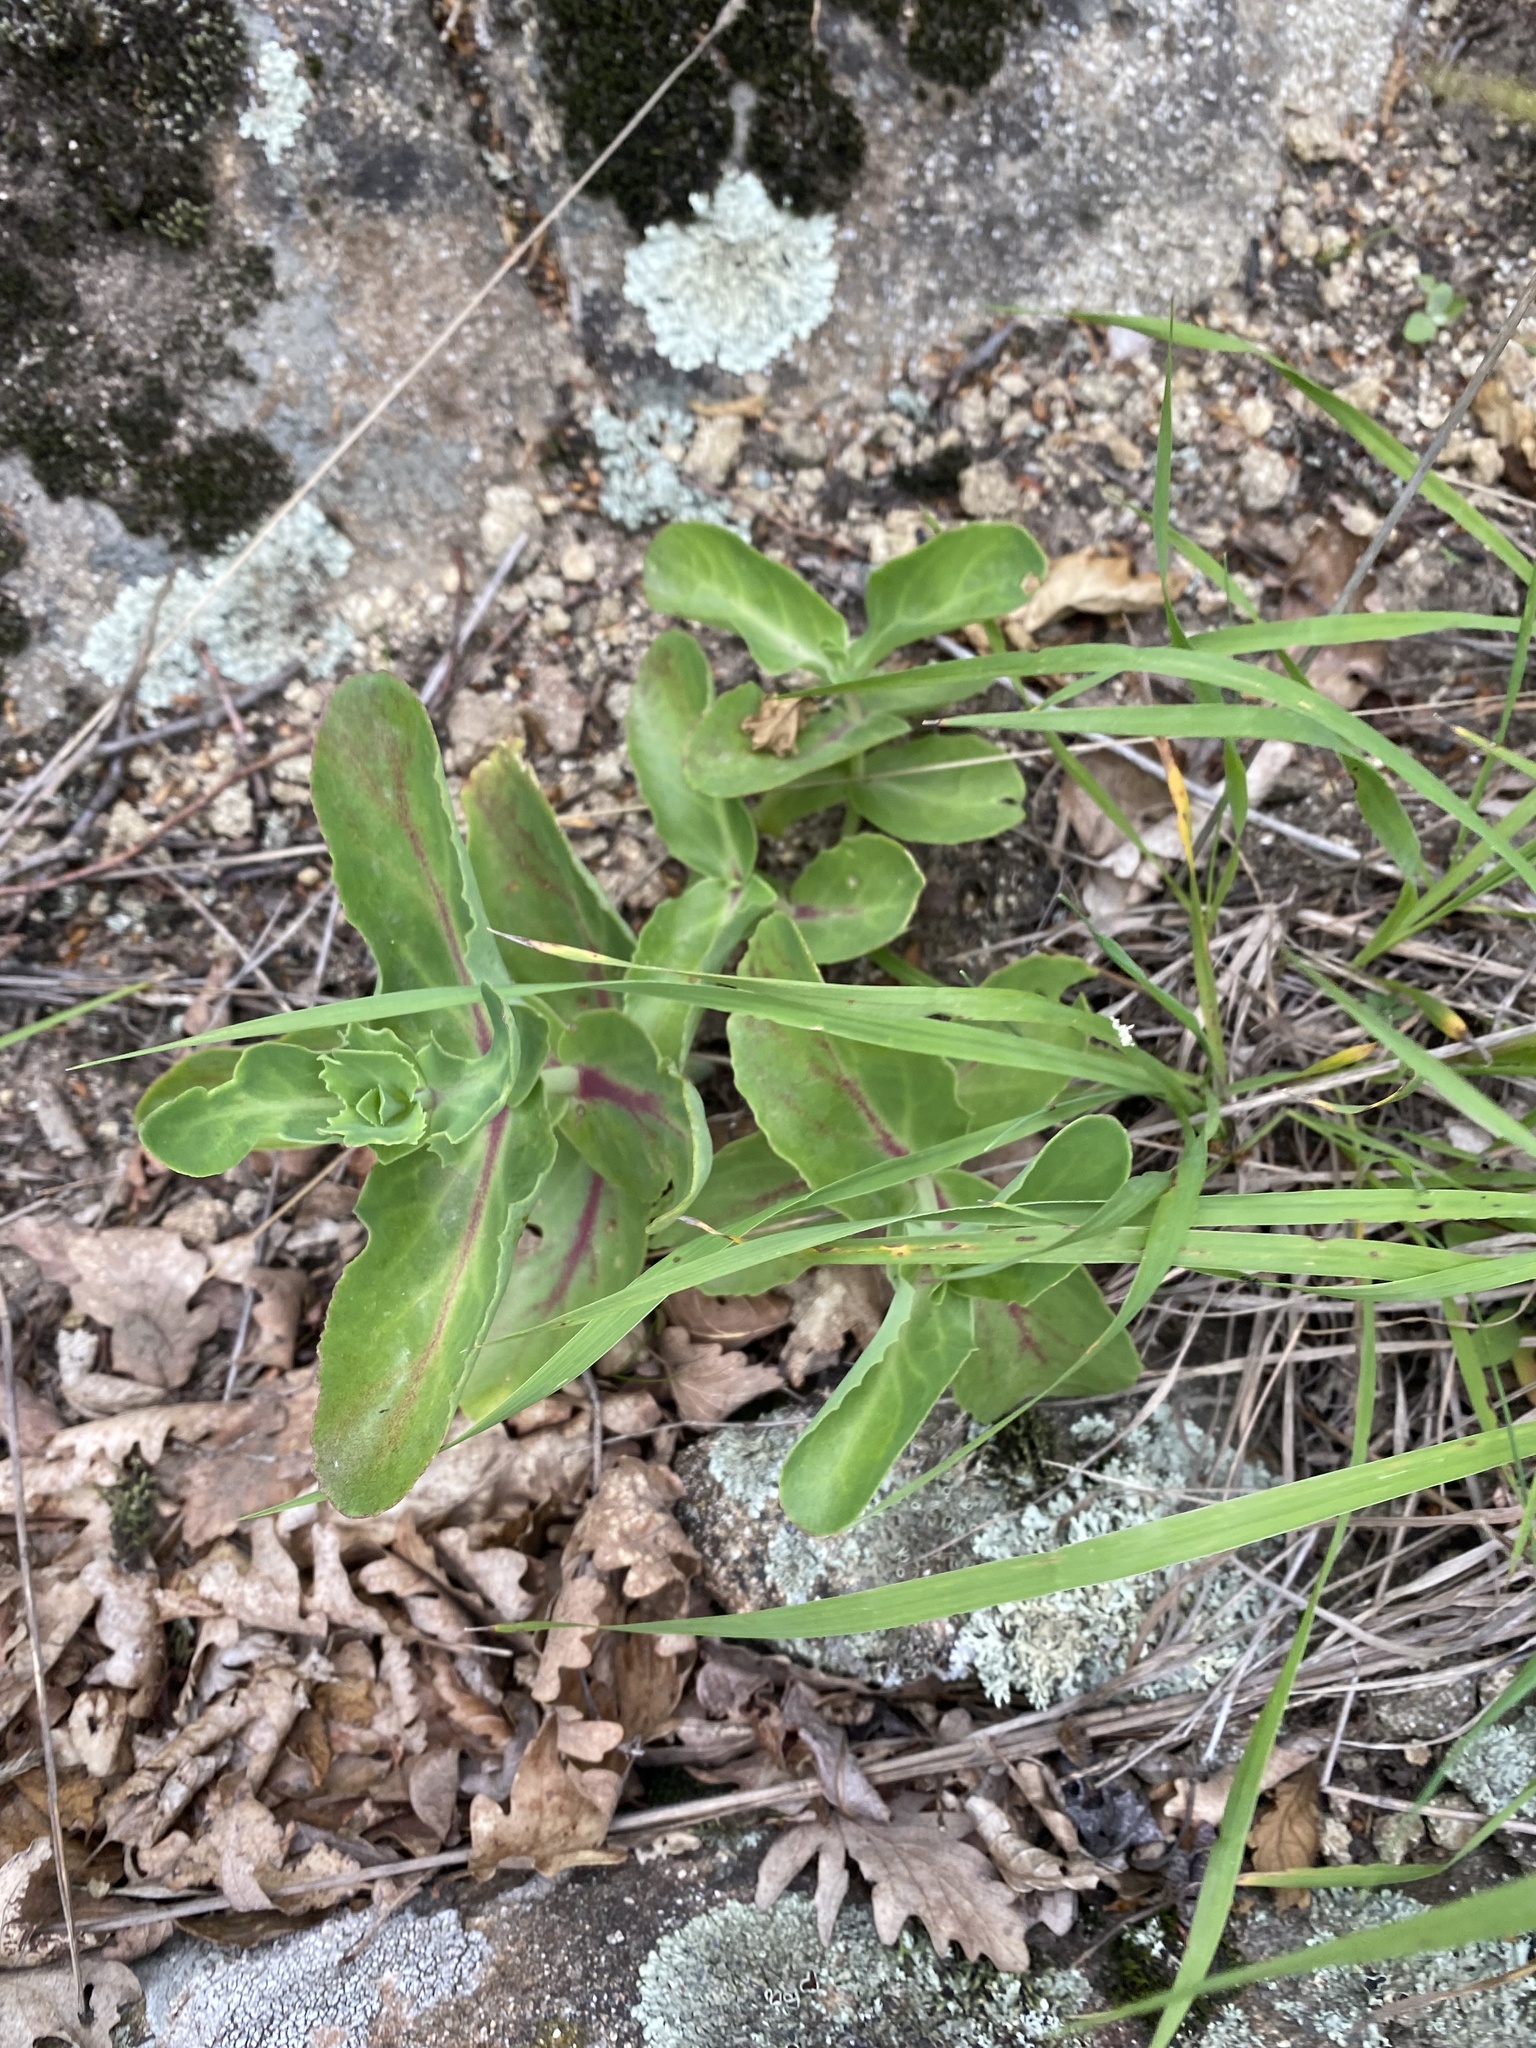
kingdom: Plantae
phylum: Tracheophyta
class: Magnoliopsida
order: Saxifragales
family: Crassulaceae
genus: Hylotelephium
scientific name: Hylotelephium maximum
